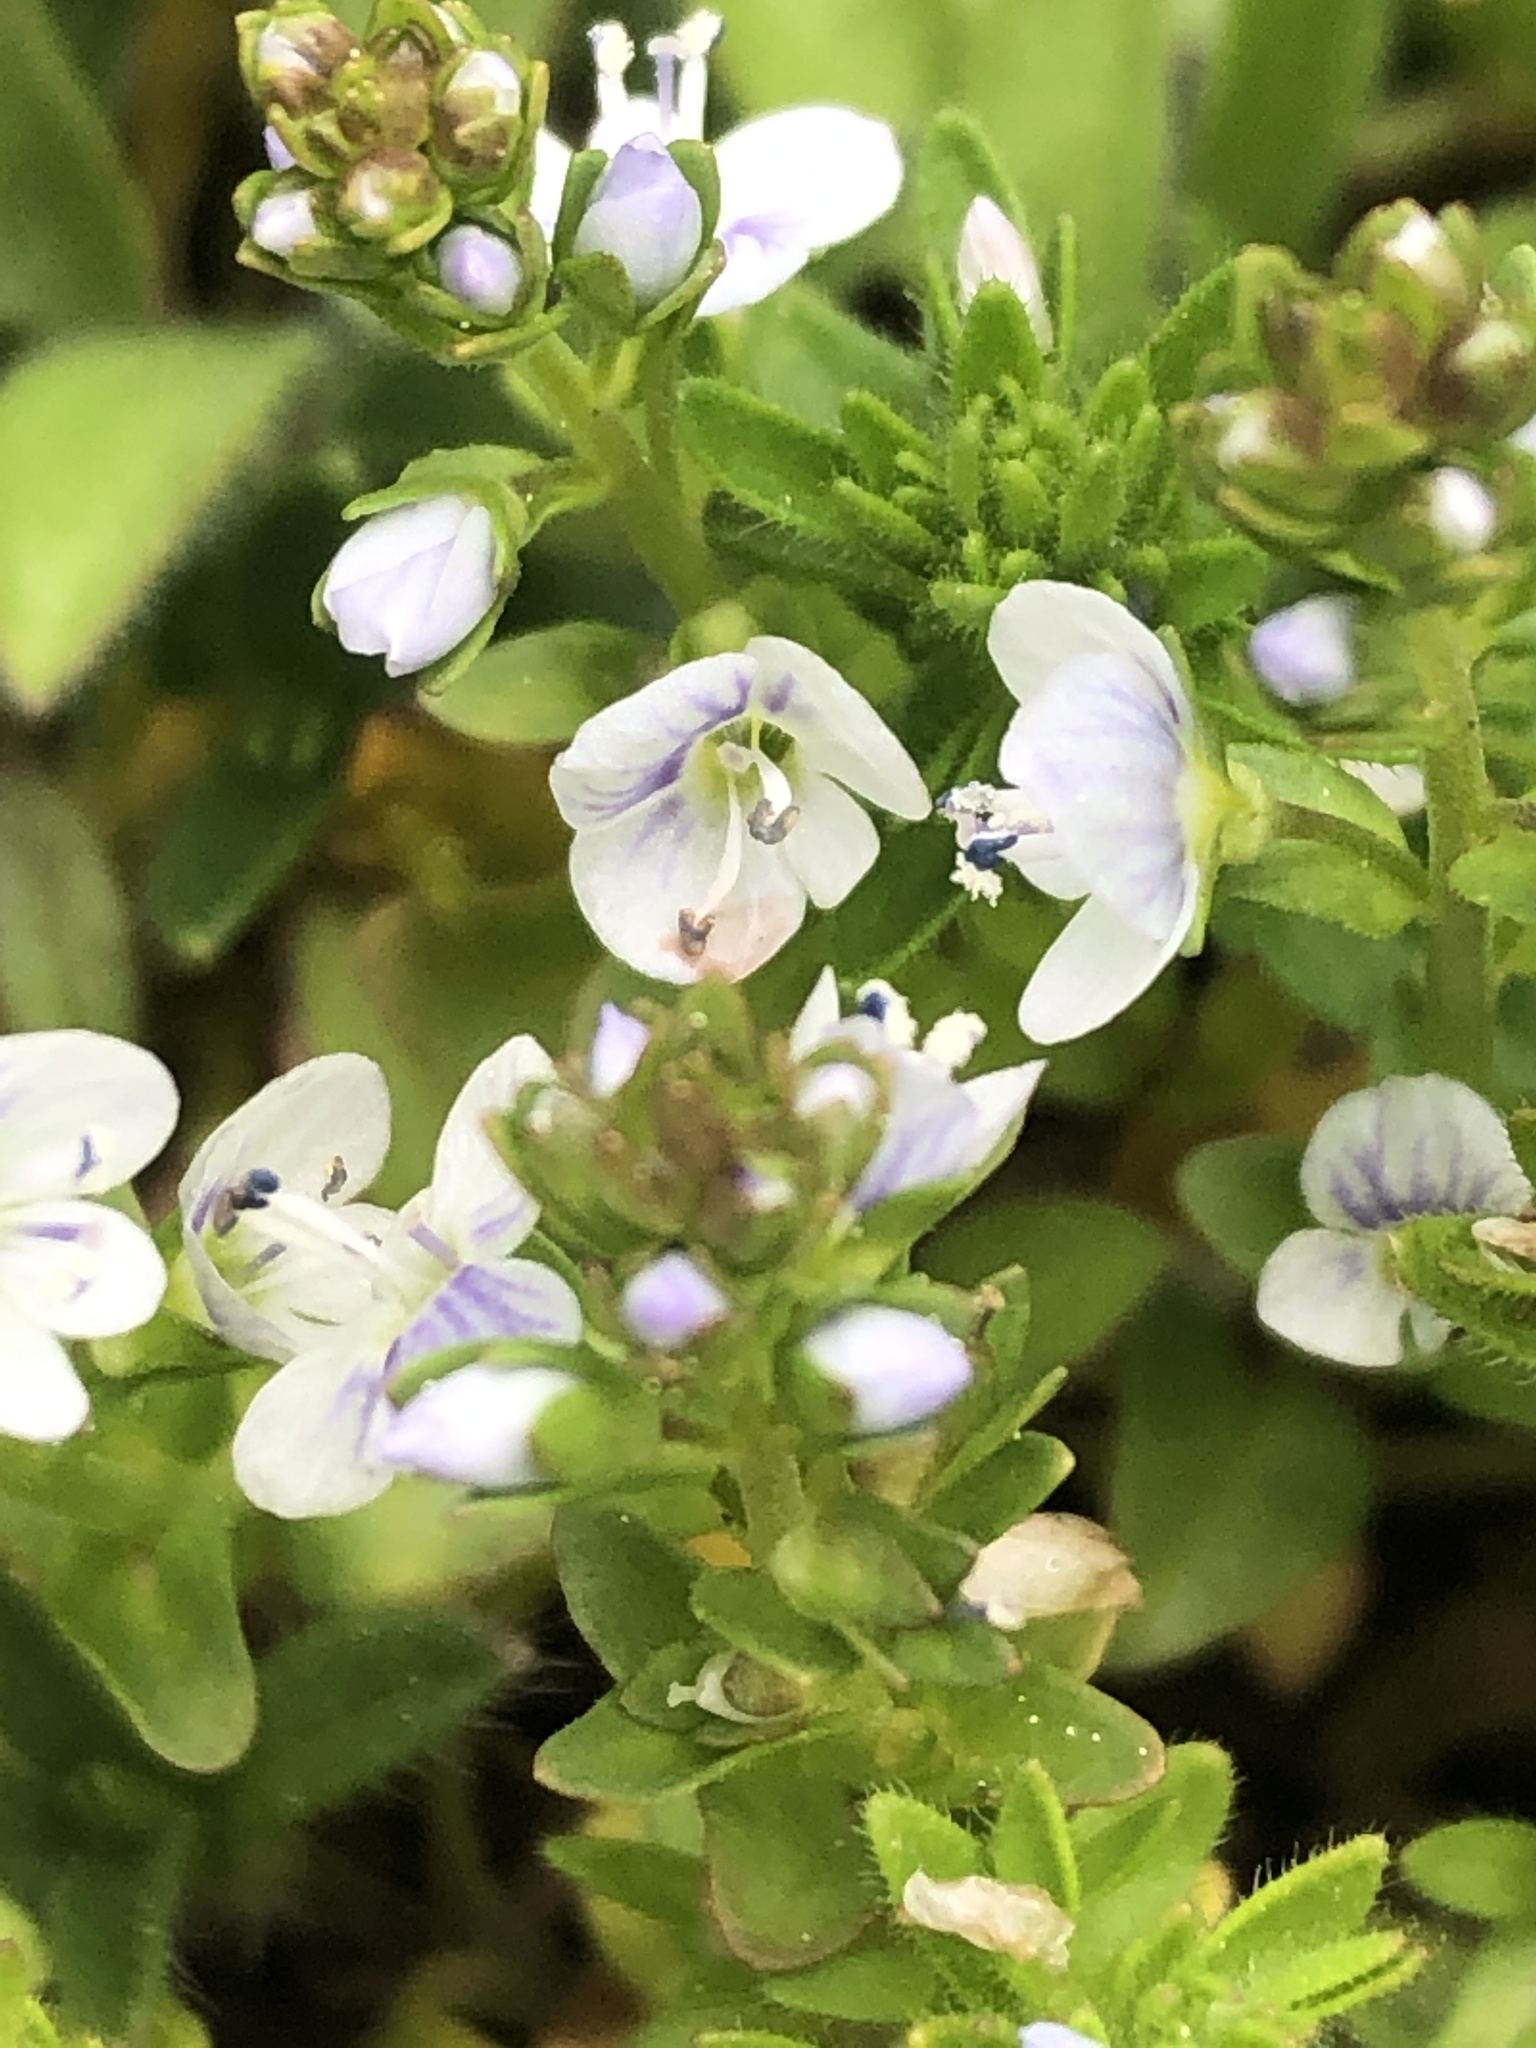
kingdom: Plantae
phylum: Tracheophyta
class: Magnoliopsida
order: Lamiales
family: Plantaginaceae
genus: Veronica
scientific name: Veronica serpyllifolia
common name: Thyme-leaved speedwell
